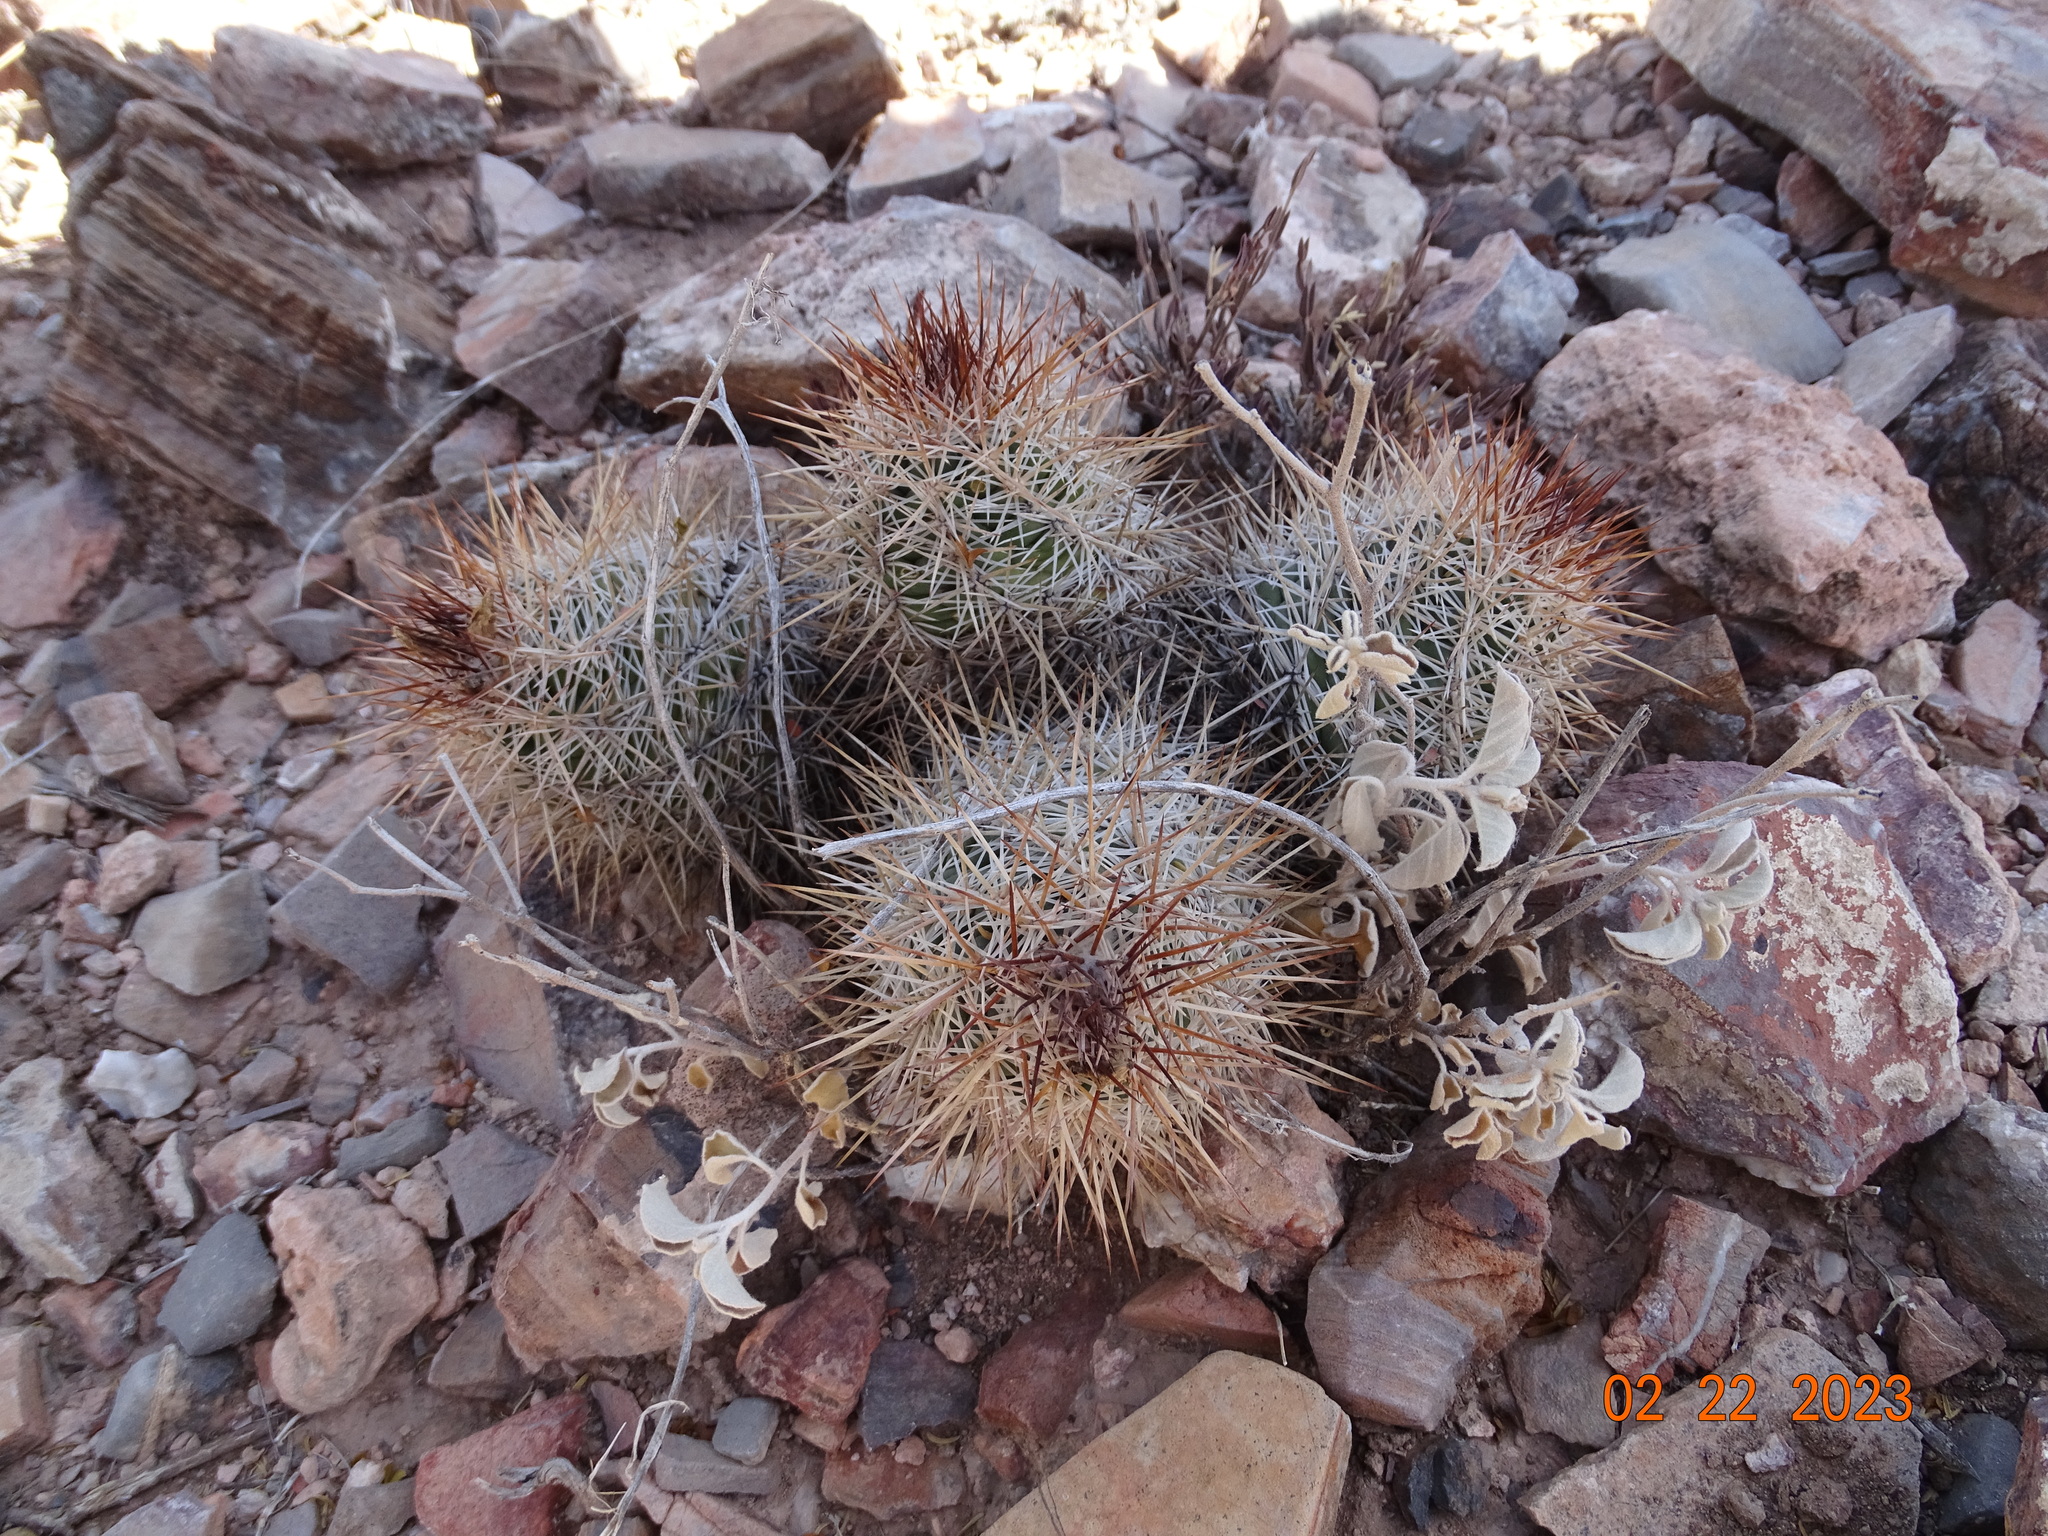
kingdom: Plantae
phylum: Tracheophyta
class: Magnoliopsida
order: Caryophyllales
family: Cactaceae
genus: Cochemiea
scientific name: Cochemiea conoidea
